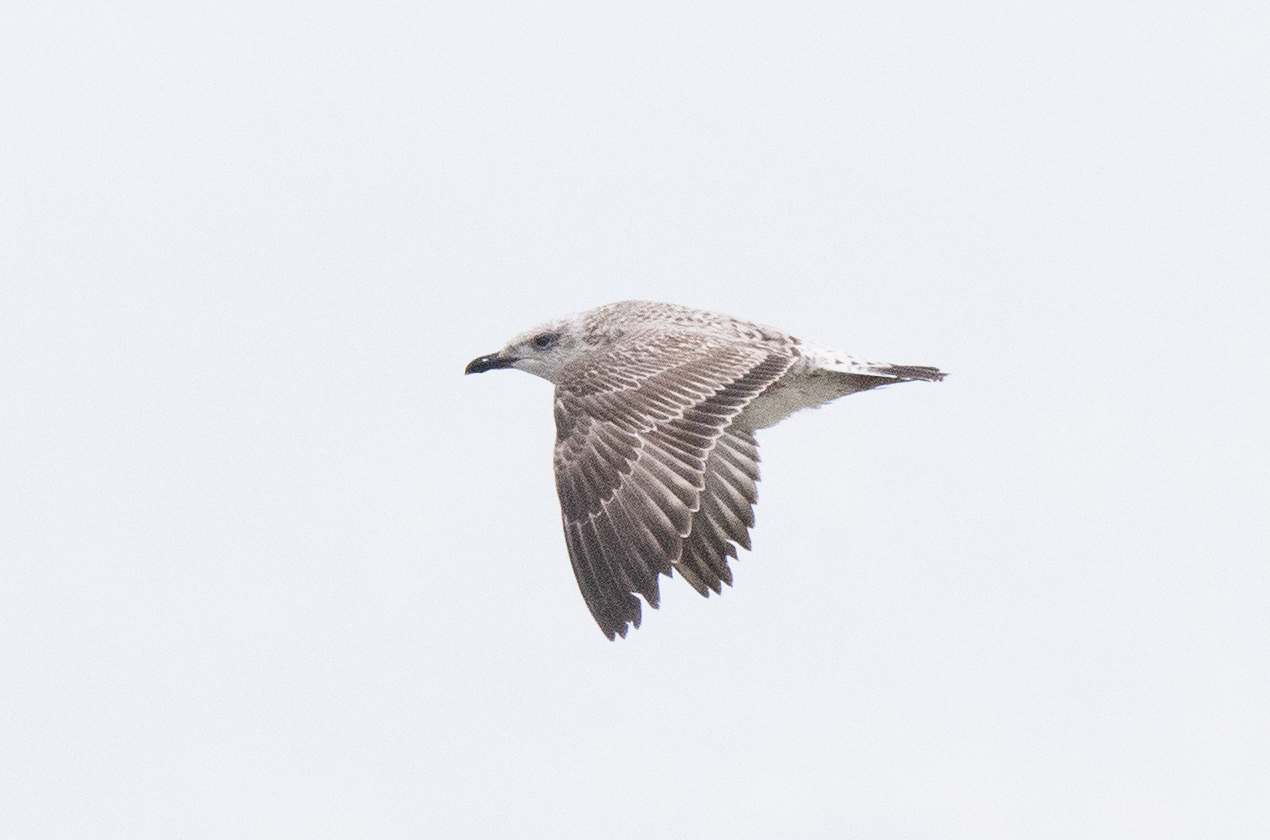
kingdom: Animalia
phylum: Chordata
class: Aves
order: Charadriiformes
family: Laridae
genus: Larus
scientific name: Larus michahellis
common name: Yellow-legged gull
